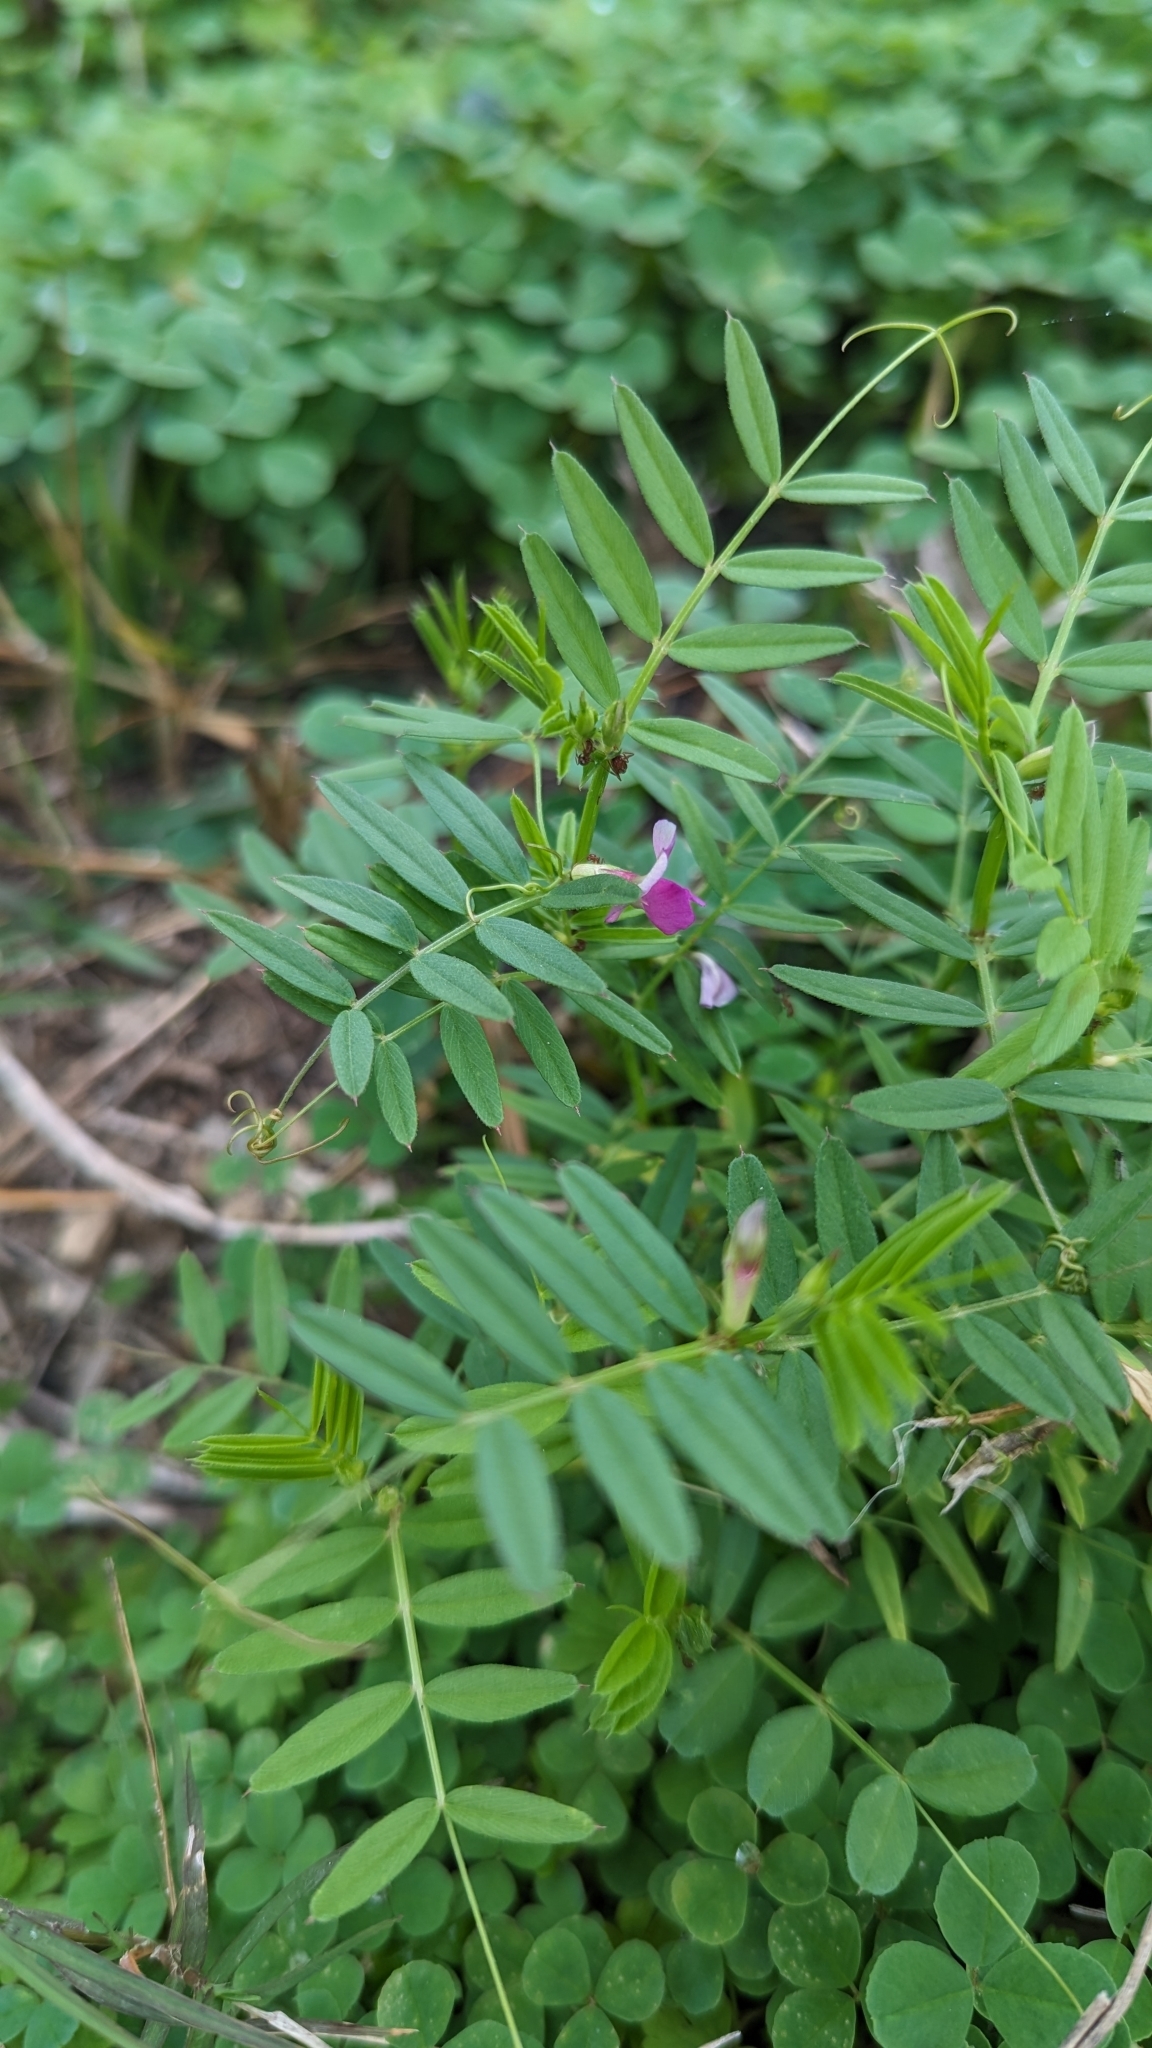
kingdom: Plantae
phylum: Tracheophyta
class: Magnoliopsida
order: Fabales
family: Fabaceae
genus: Vicia
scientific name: Vicia sativa
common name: Garden vetch
